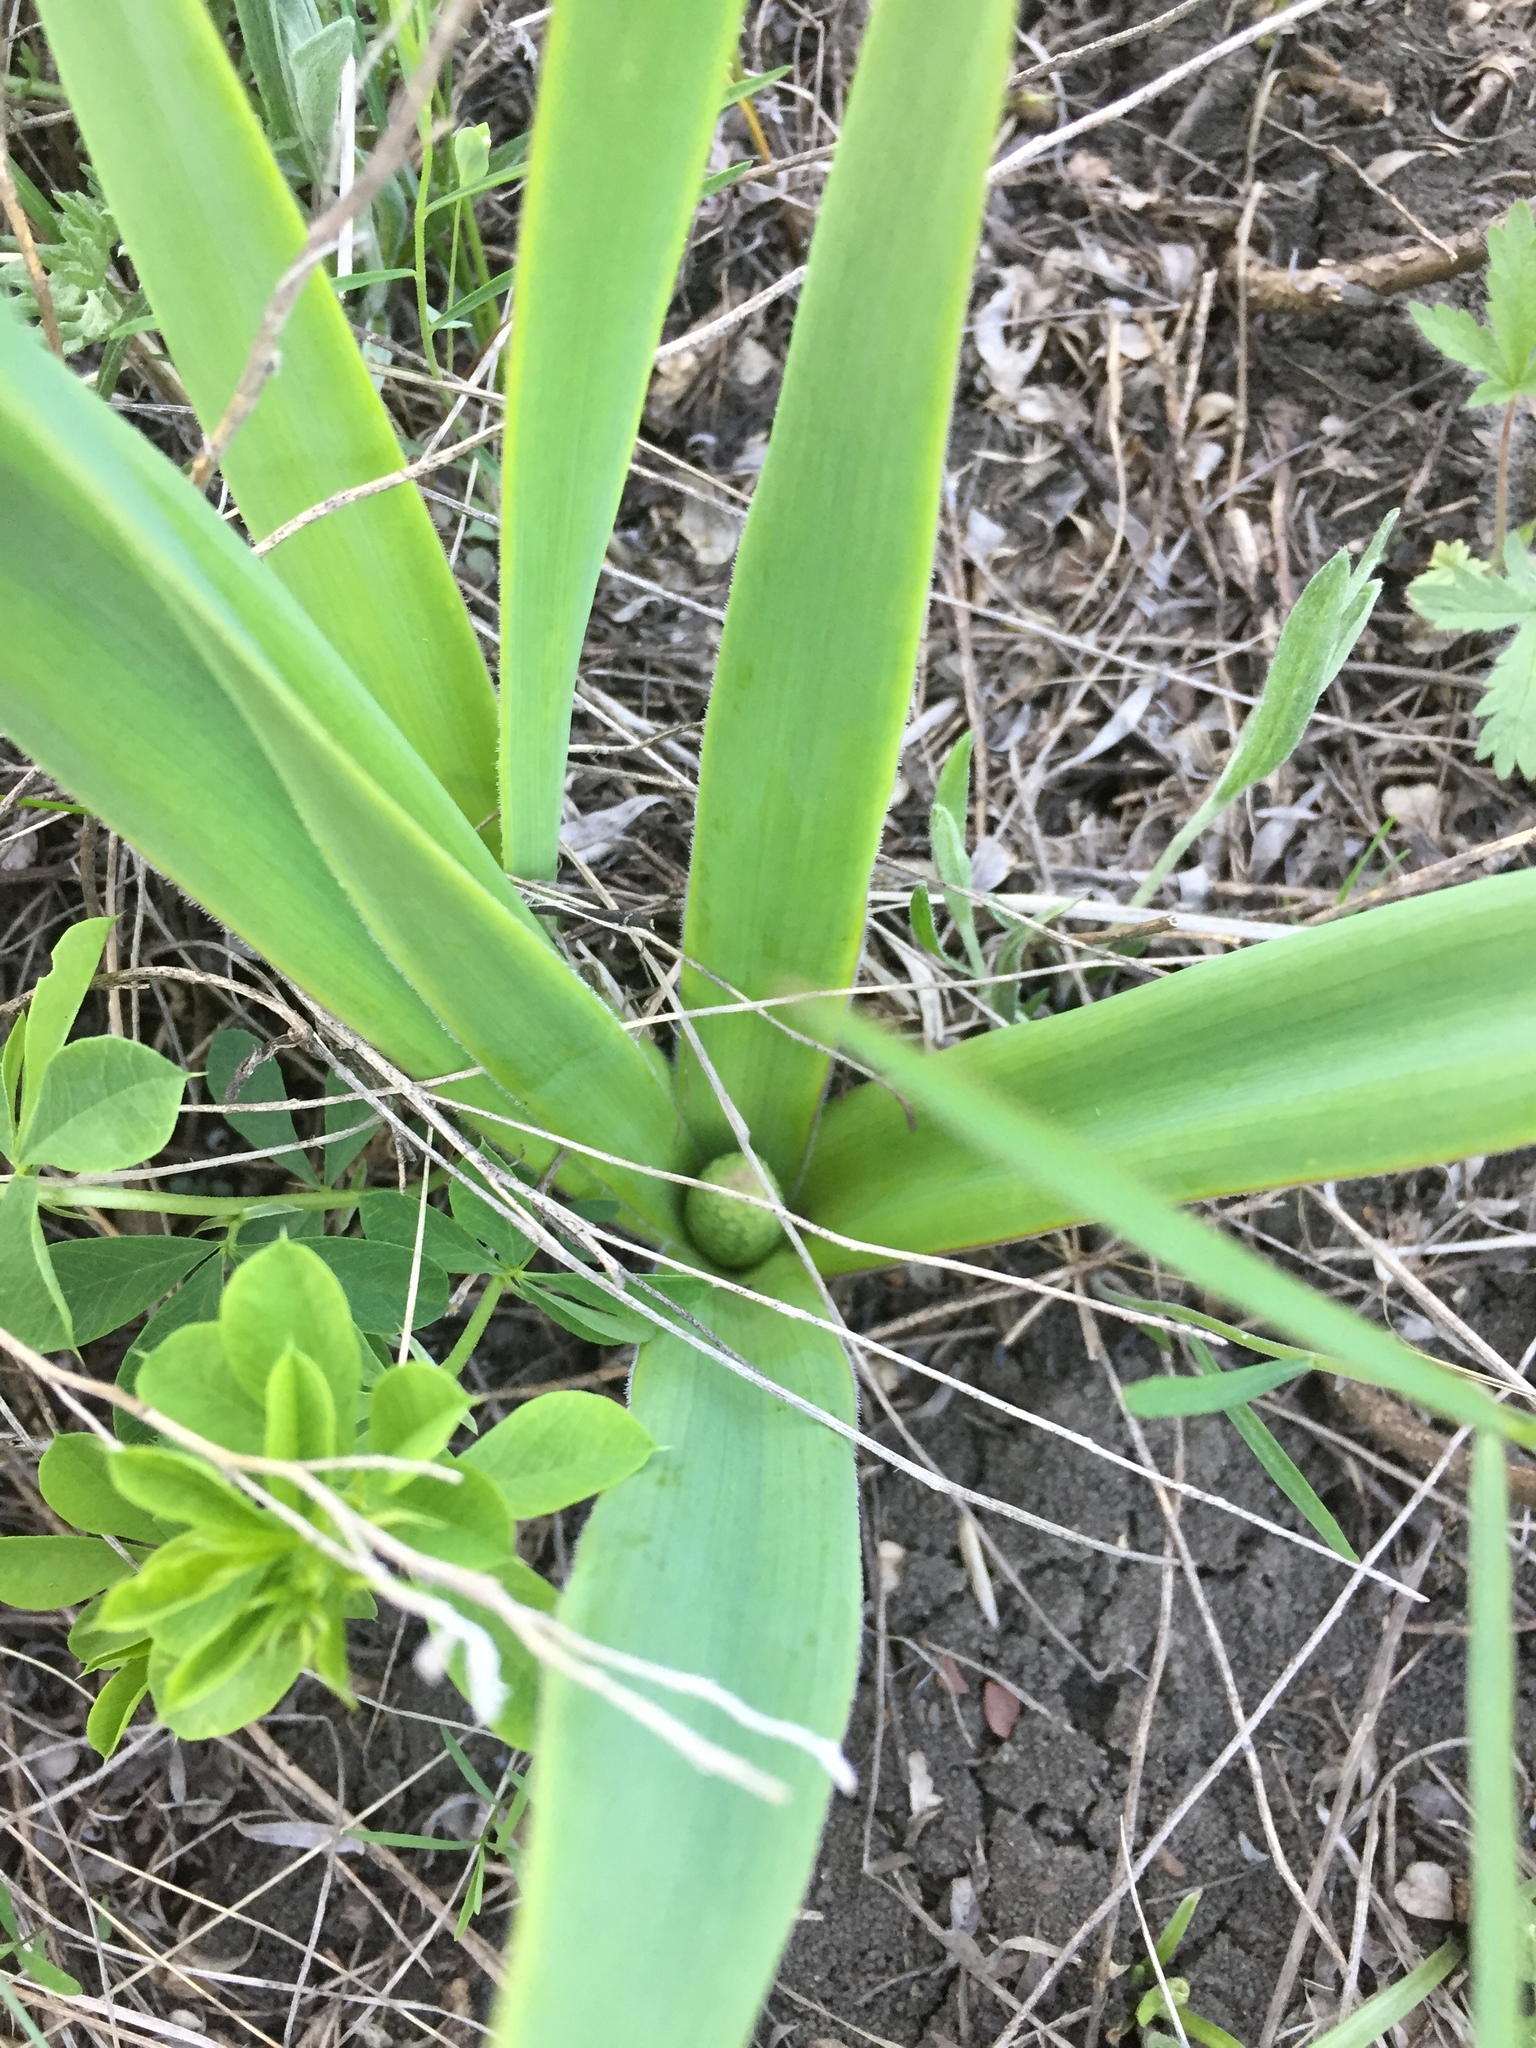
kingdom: Plantae
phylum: Tracheophyta
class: Liliopsida
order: Asparagales
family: Asparagaceae
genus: Bellevalia
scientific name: Bellevalia speciosa
